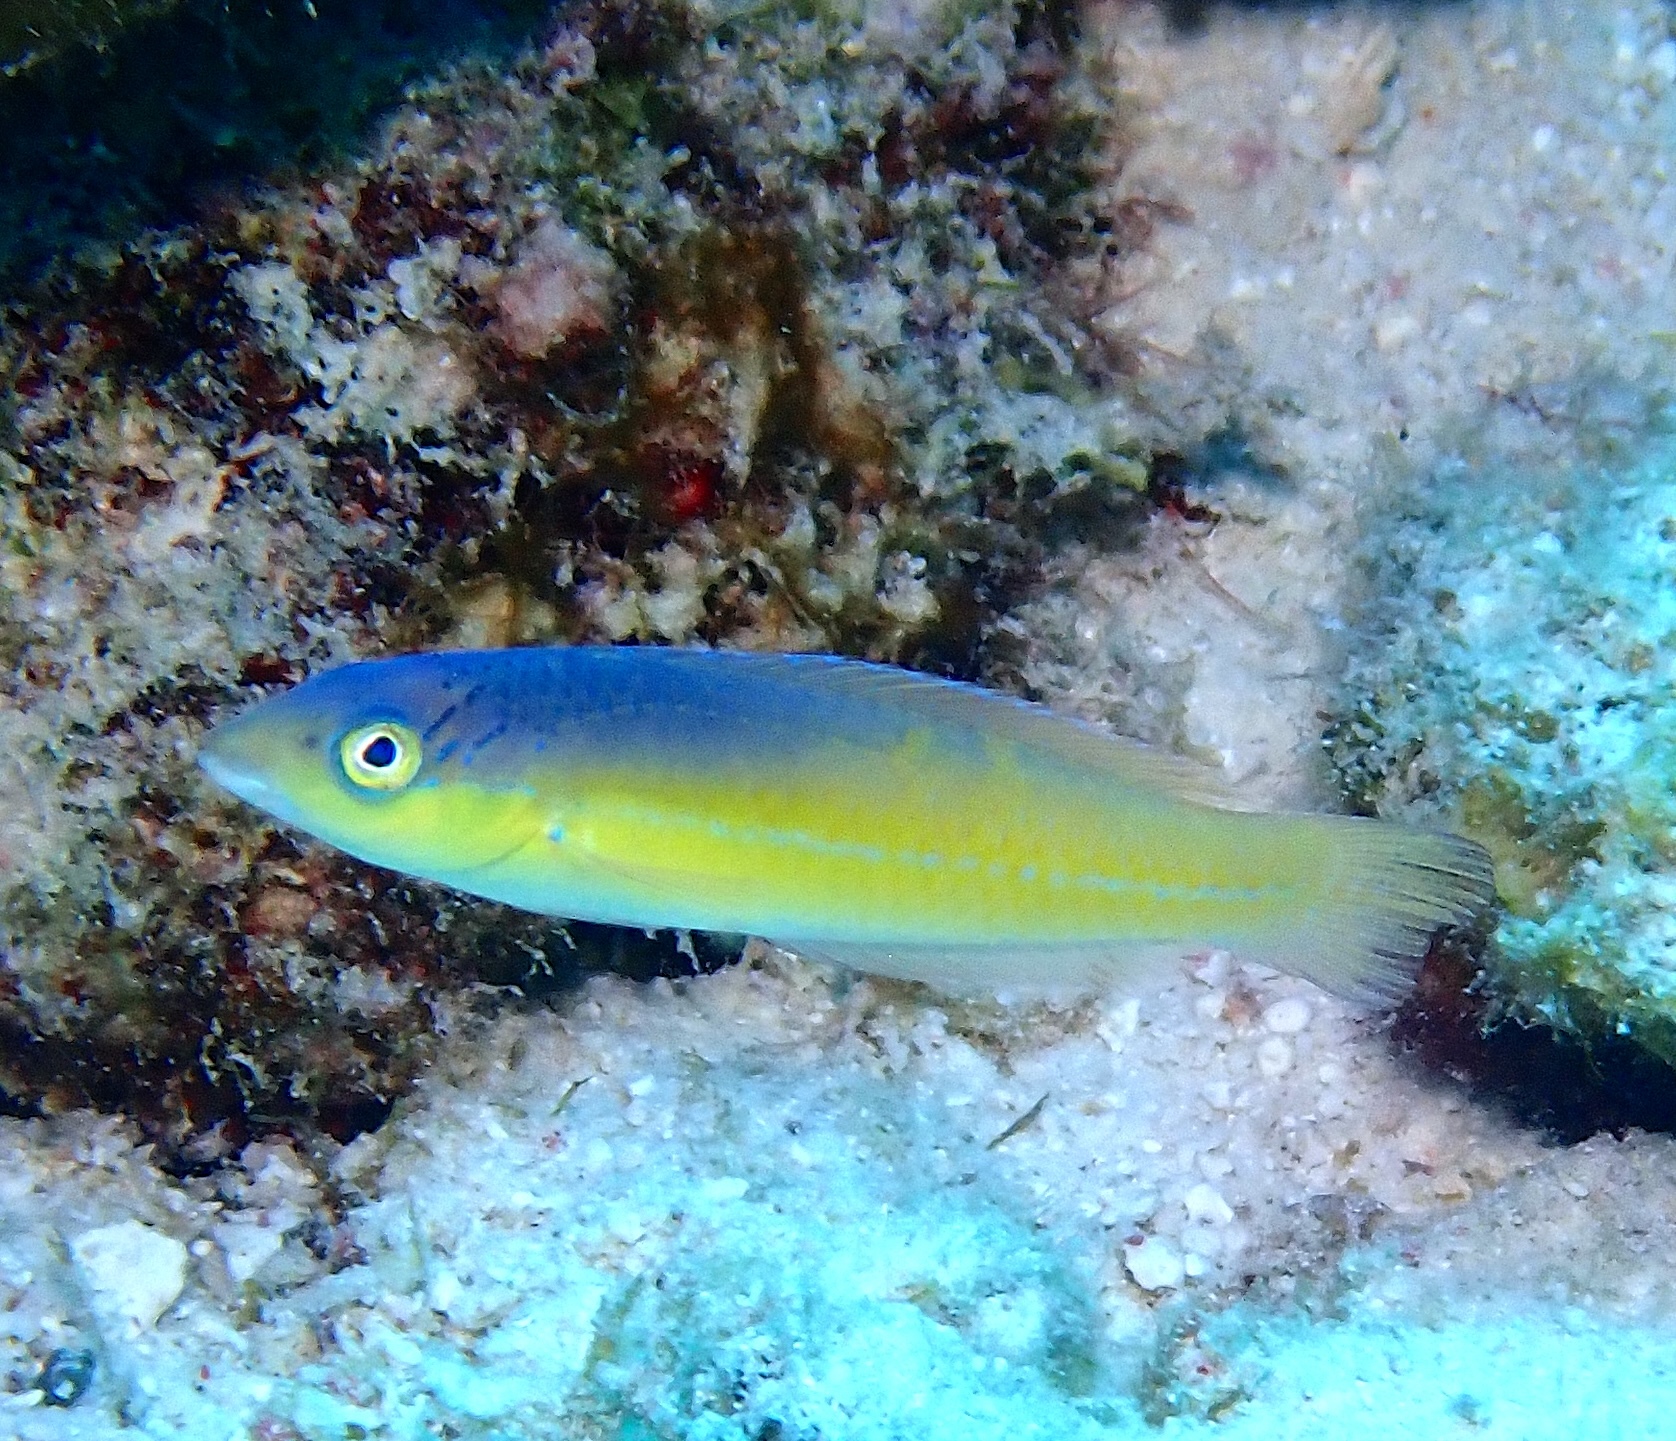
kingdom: Animalia
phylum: Chordata
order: Perciformes
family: Labridae
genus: Halichoeres
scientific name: Halichoeres garnoti
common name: Yellowhead wrasse
